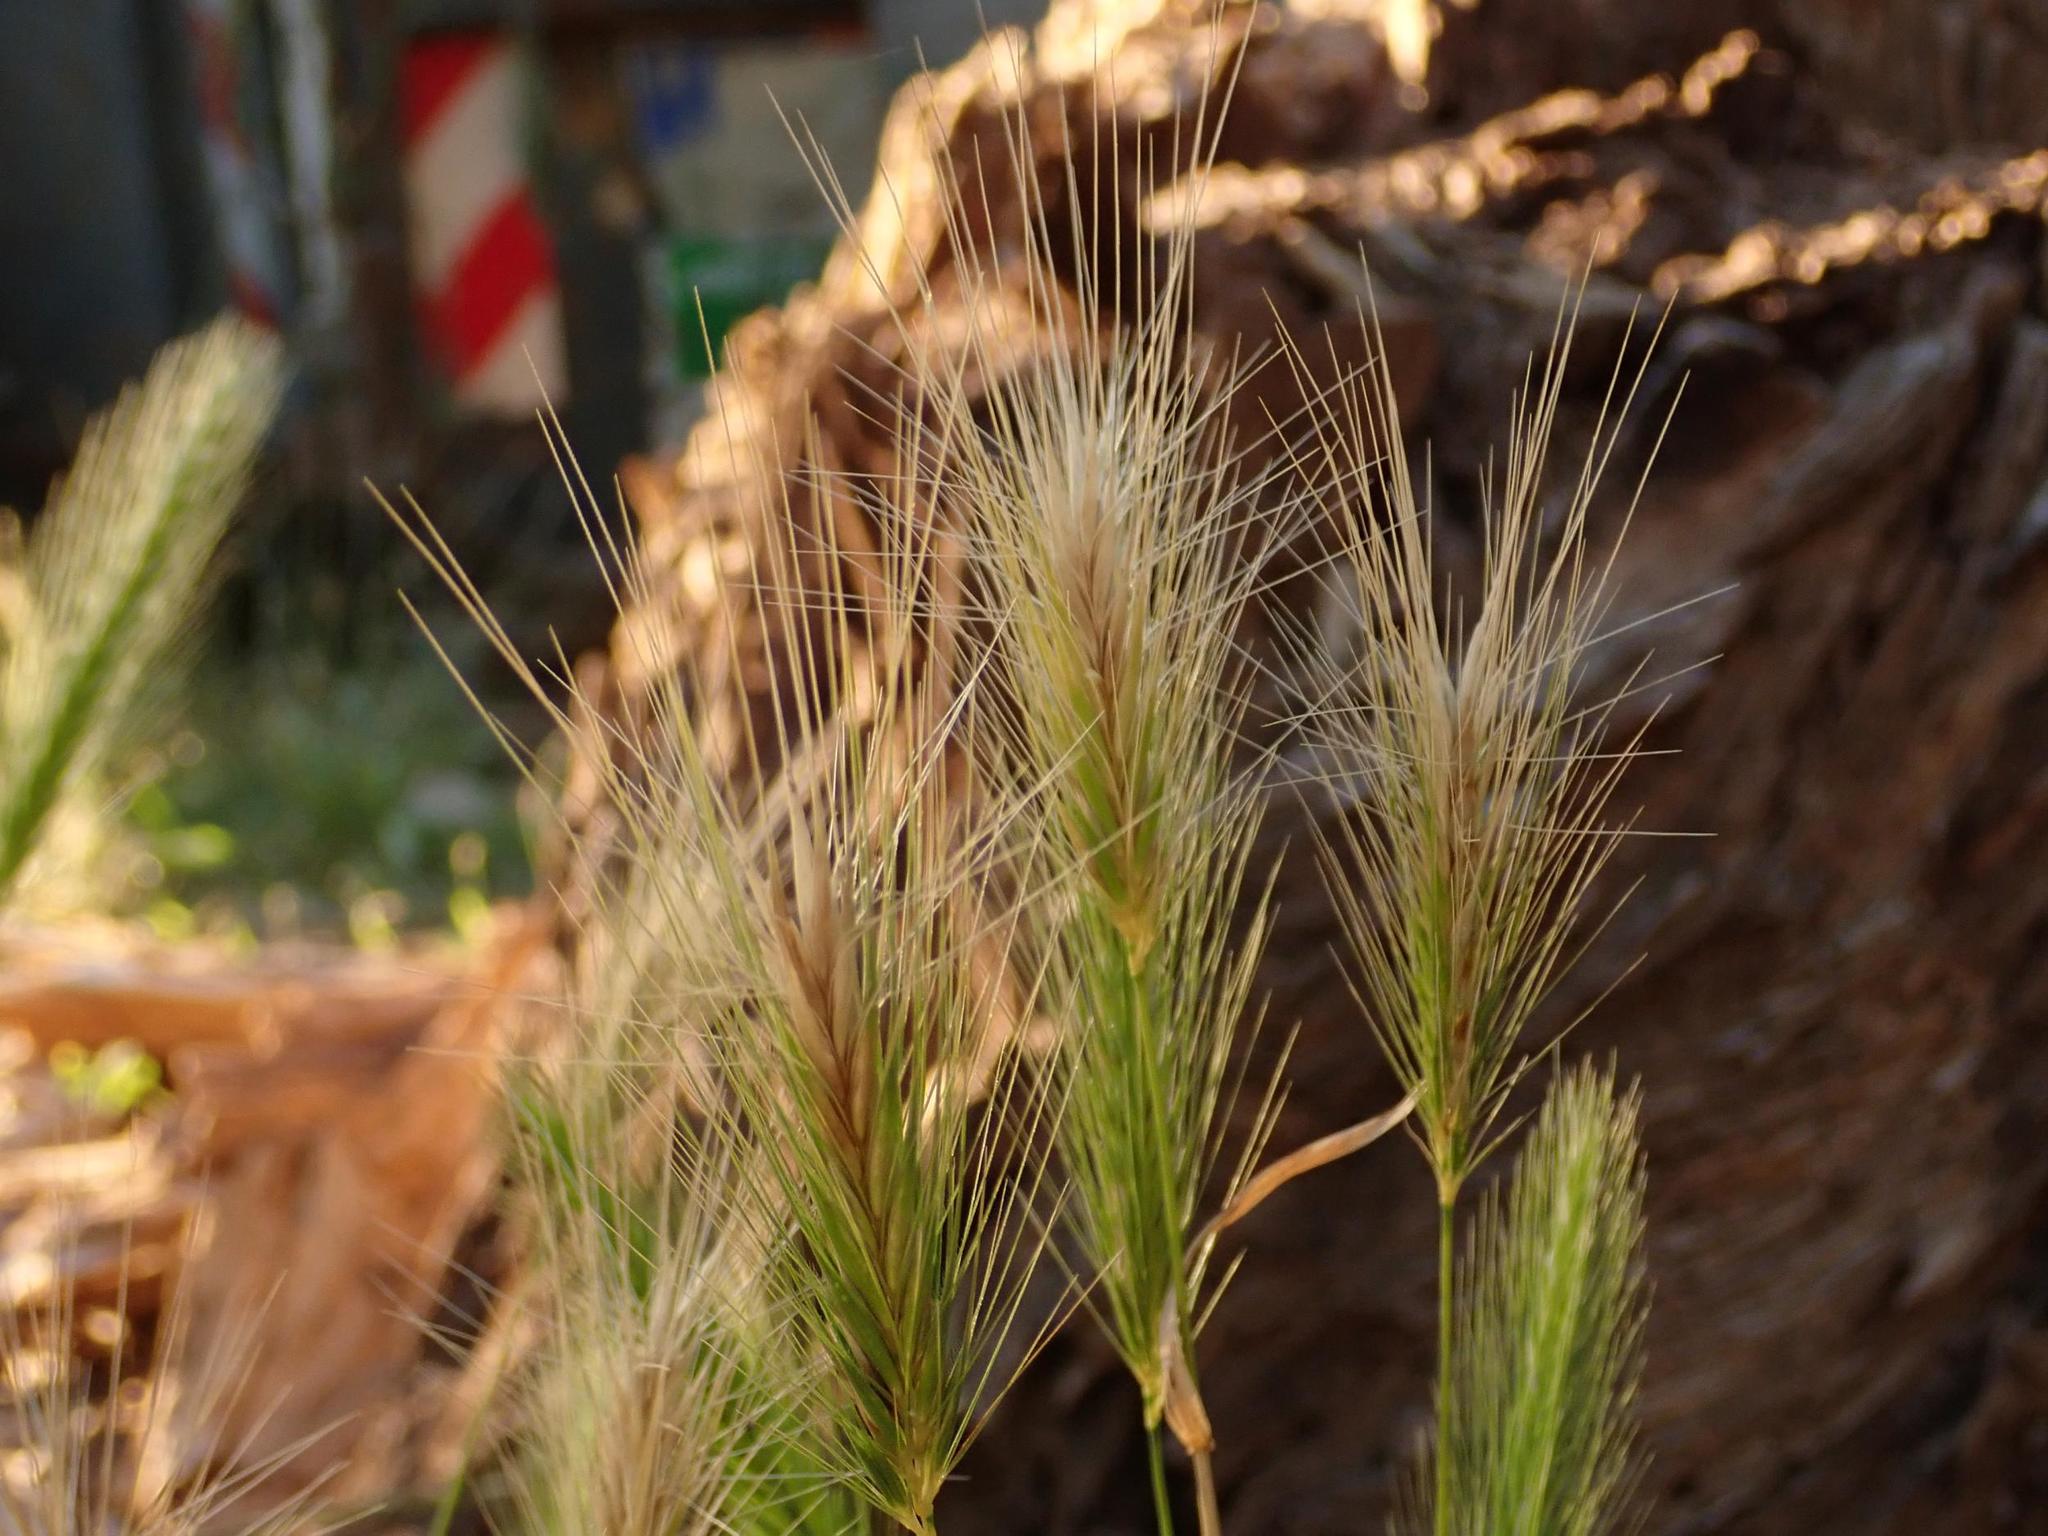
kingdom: Plantae
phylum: Tracheophyta
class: Liliopsida
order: Poales
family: Poaceae
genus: Hordeum
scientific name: Hordeum murinum
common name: Wall barley
